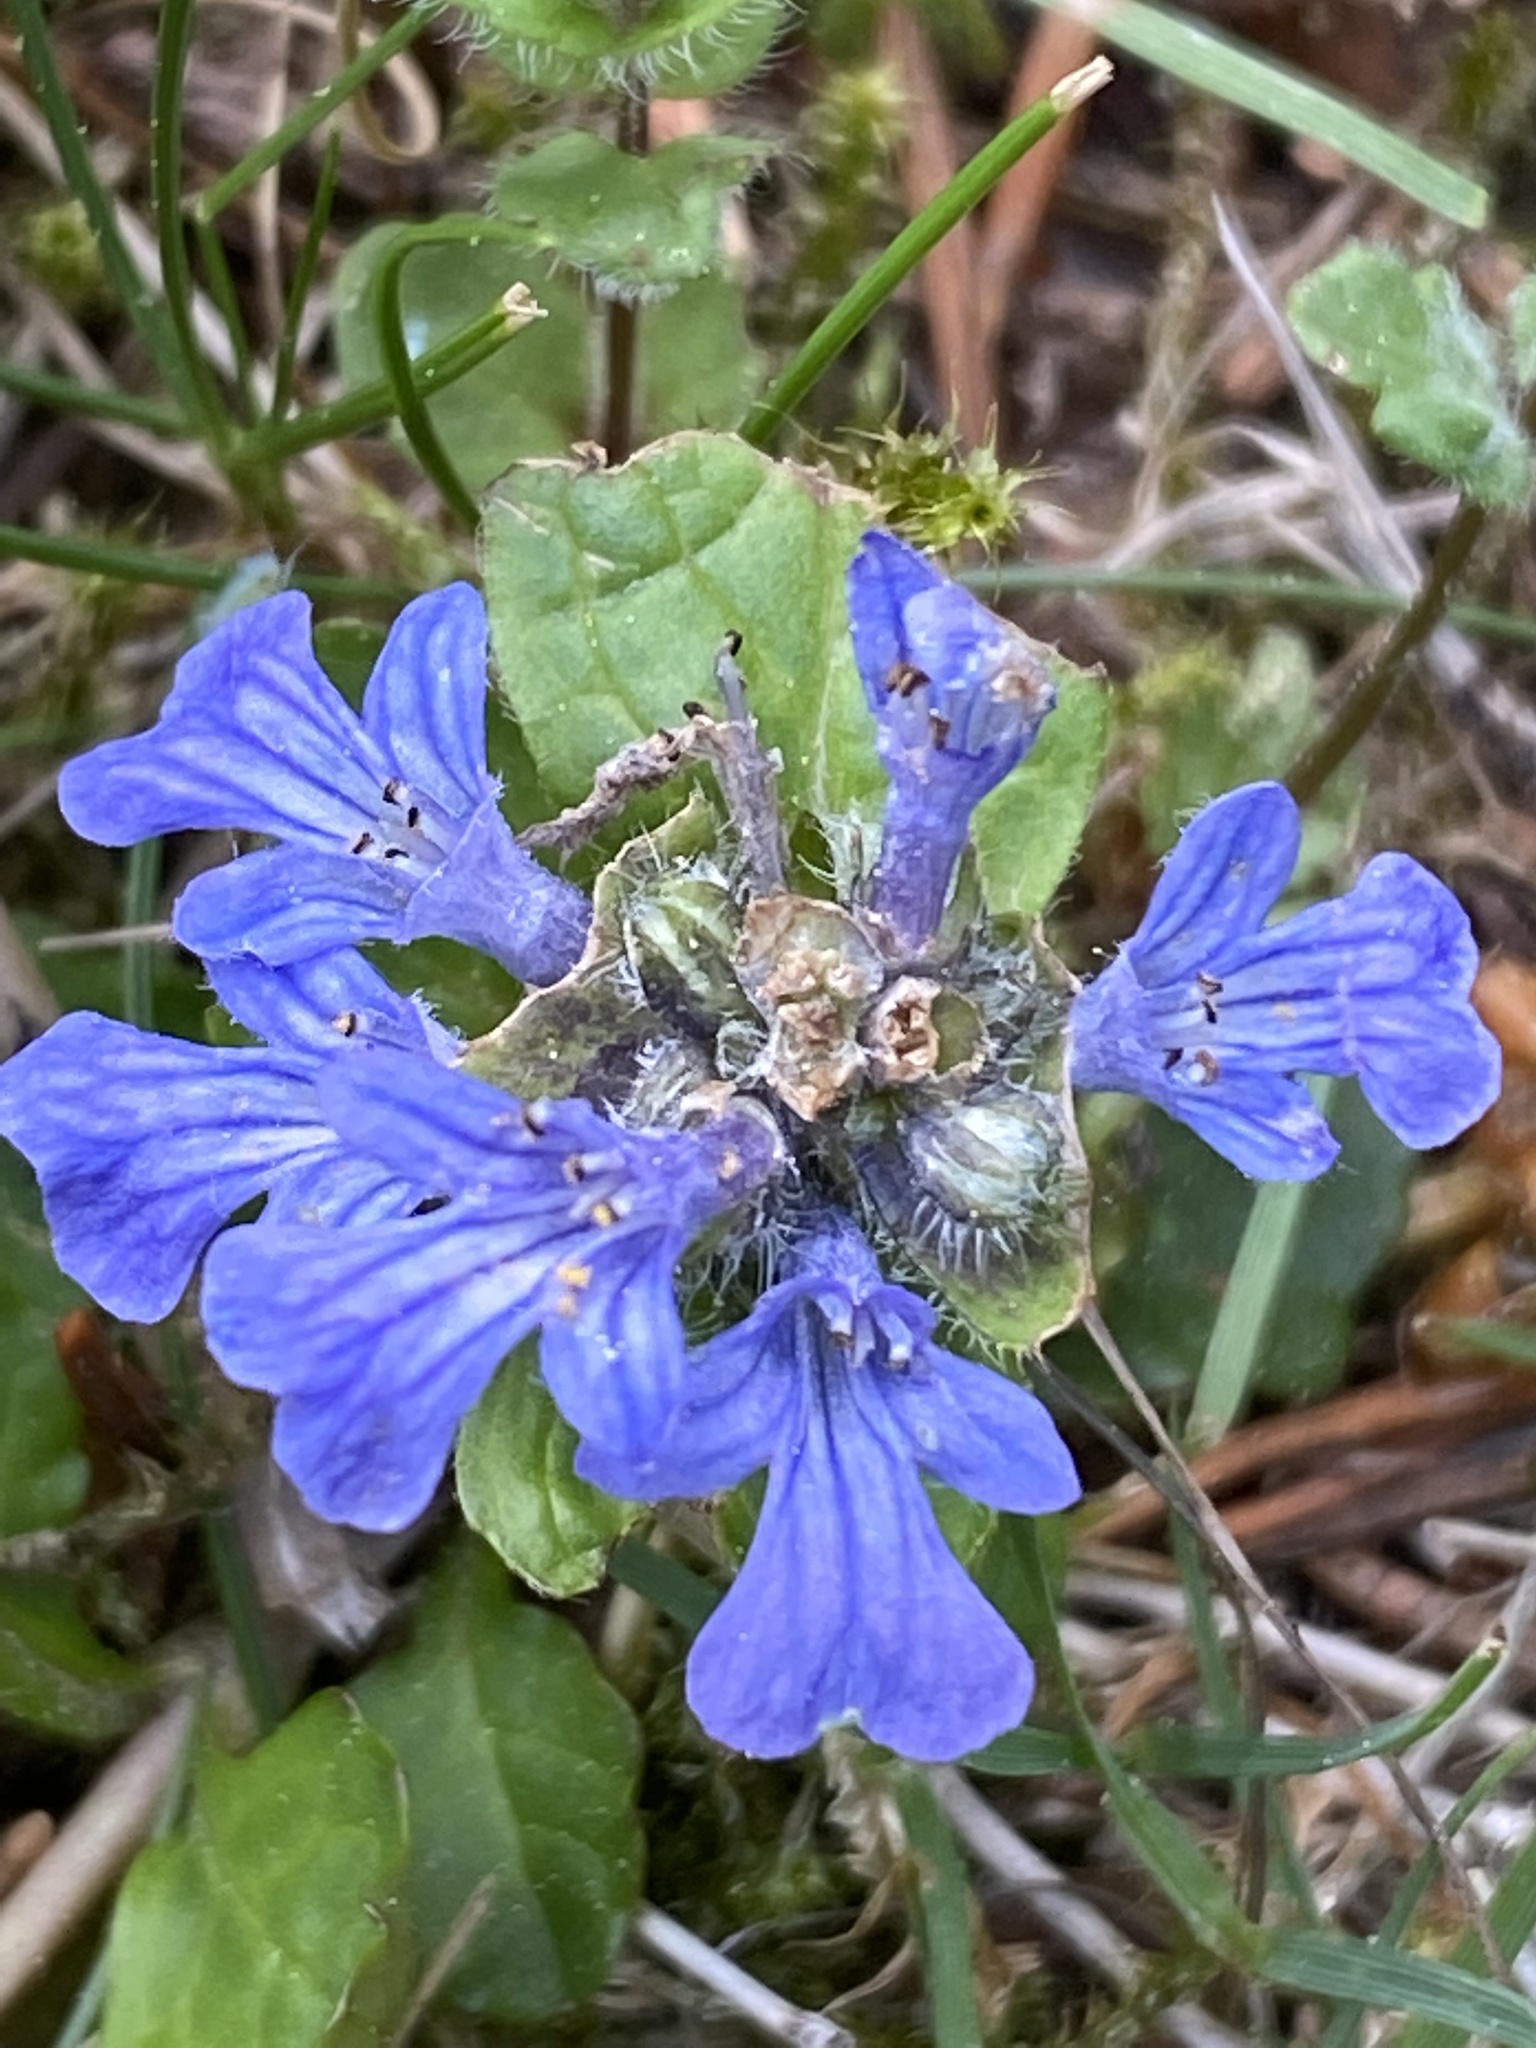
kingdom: Plantae
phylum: Tracheophyta
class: Magnoliopsida
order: Lamiales
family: Lamiaceae
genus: Ajuga
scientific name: Ajuga reptans
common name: Bugle
